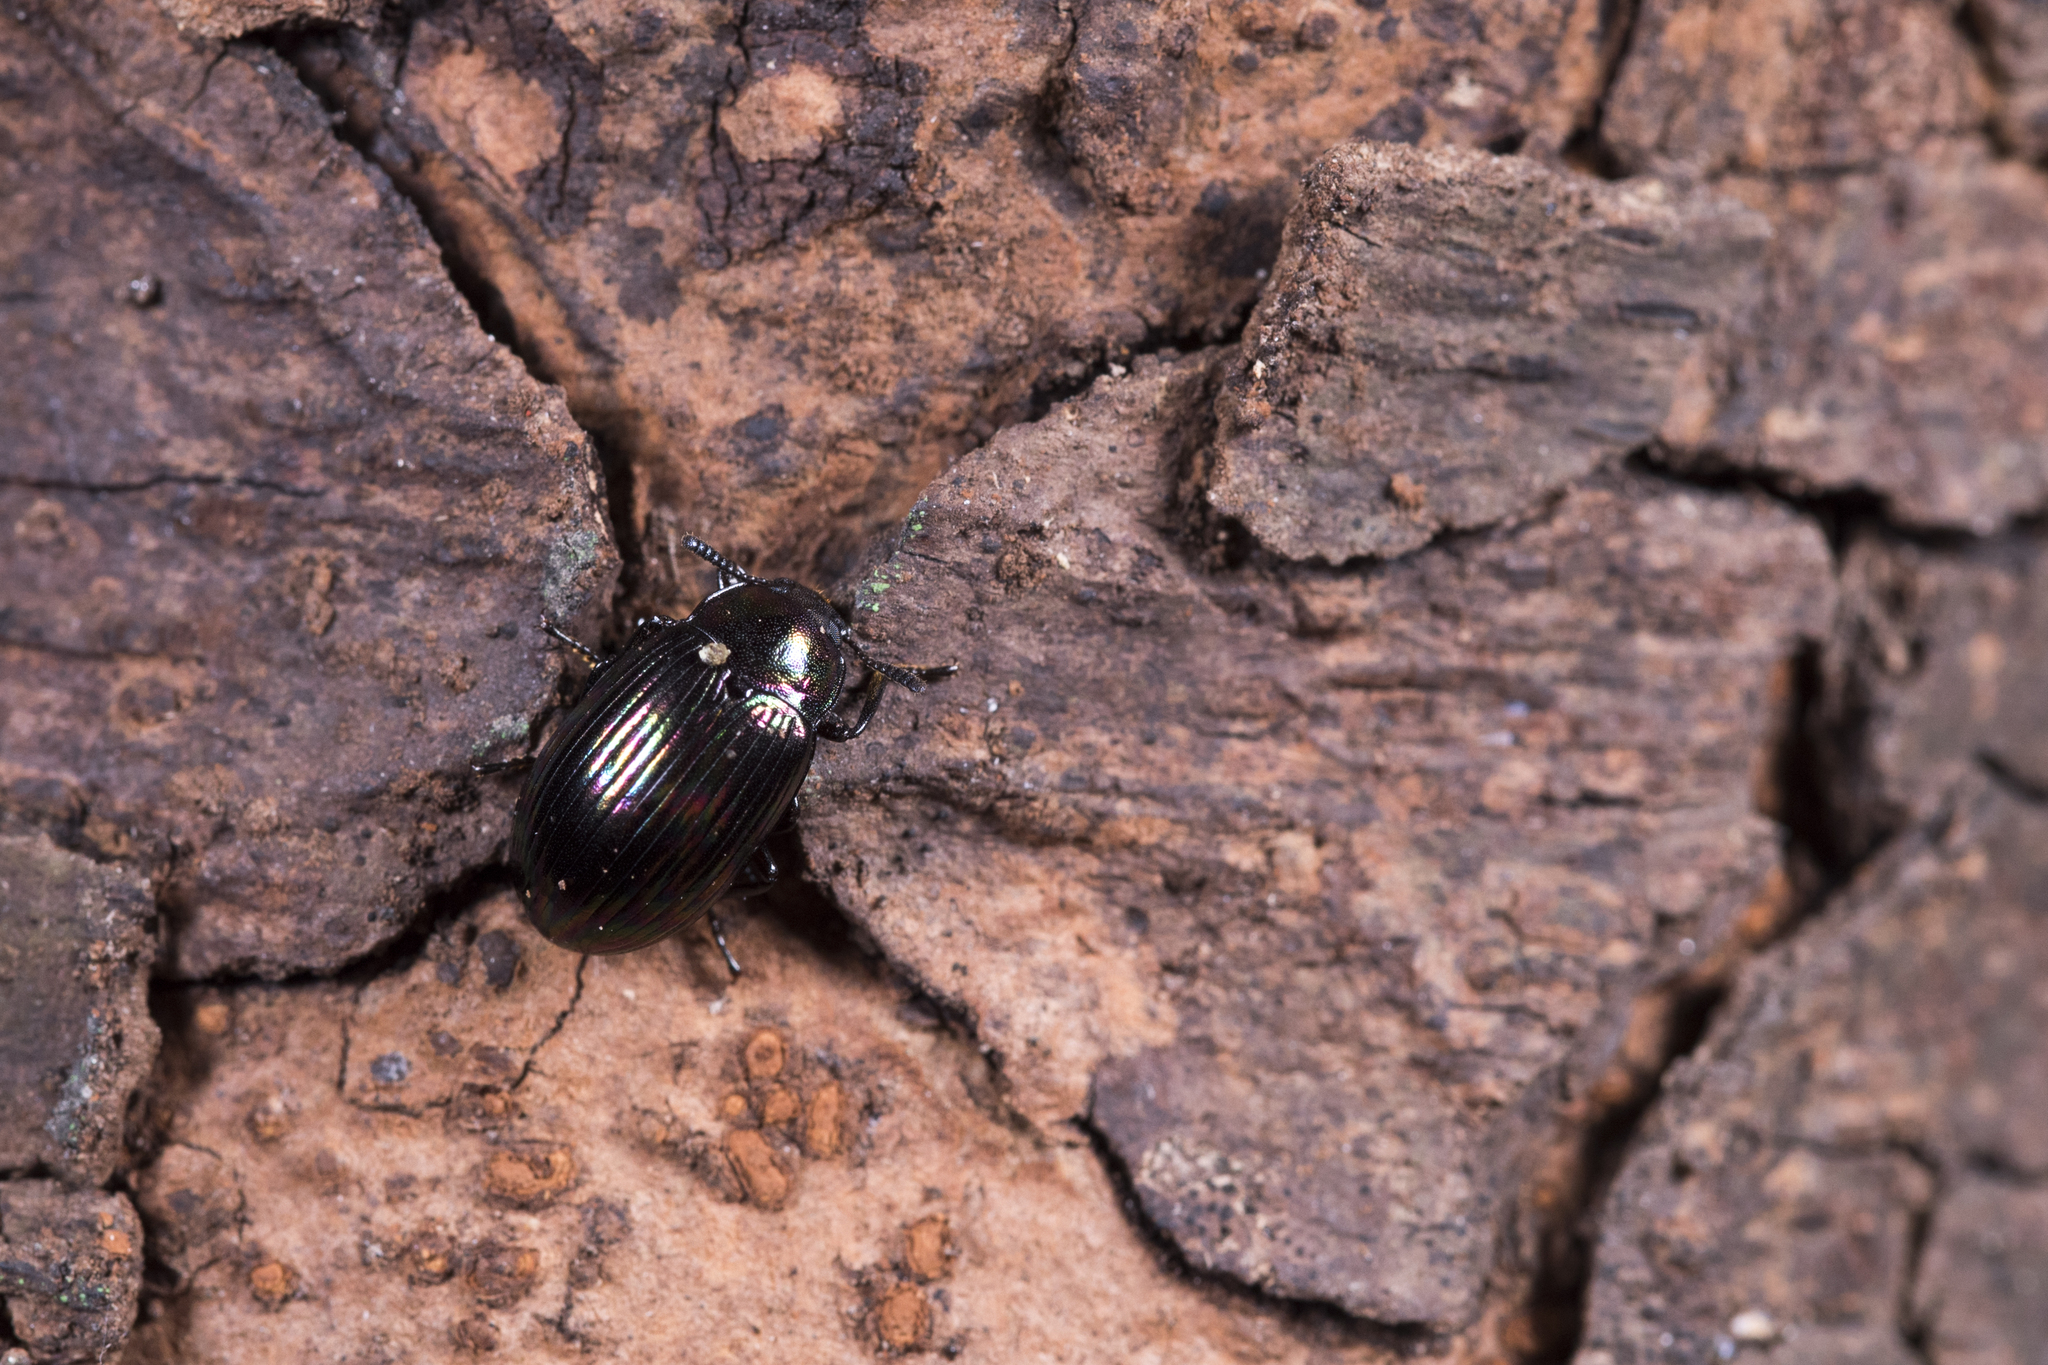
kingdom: Animalia
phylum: Arthropoda
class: Insecta
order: Coleoptera
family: Tenebrionidae
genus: Euhemicera
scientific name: Euhemicera pingtita
